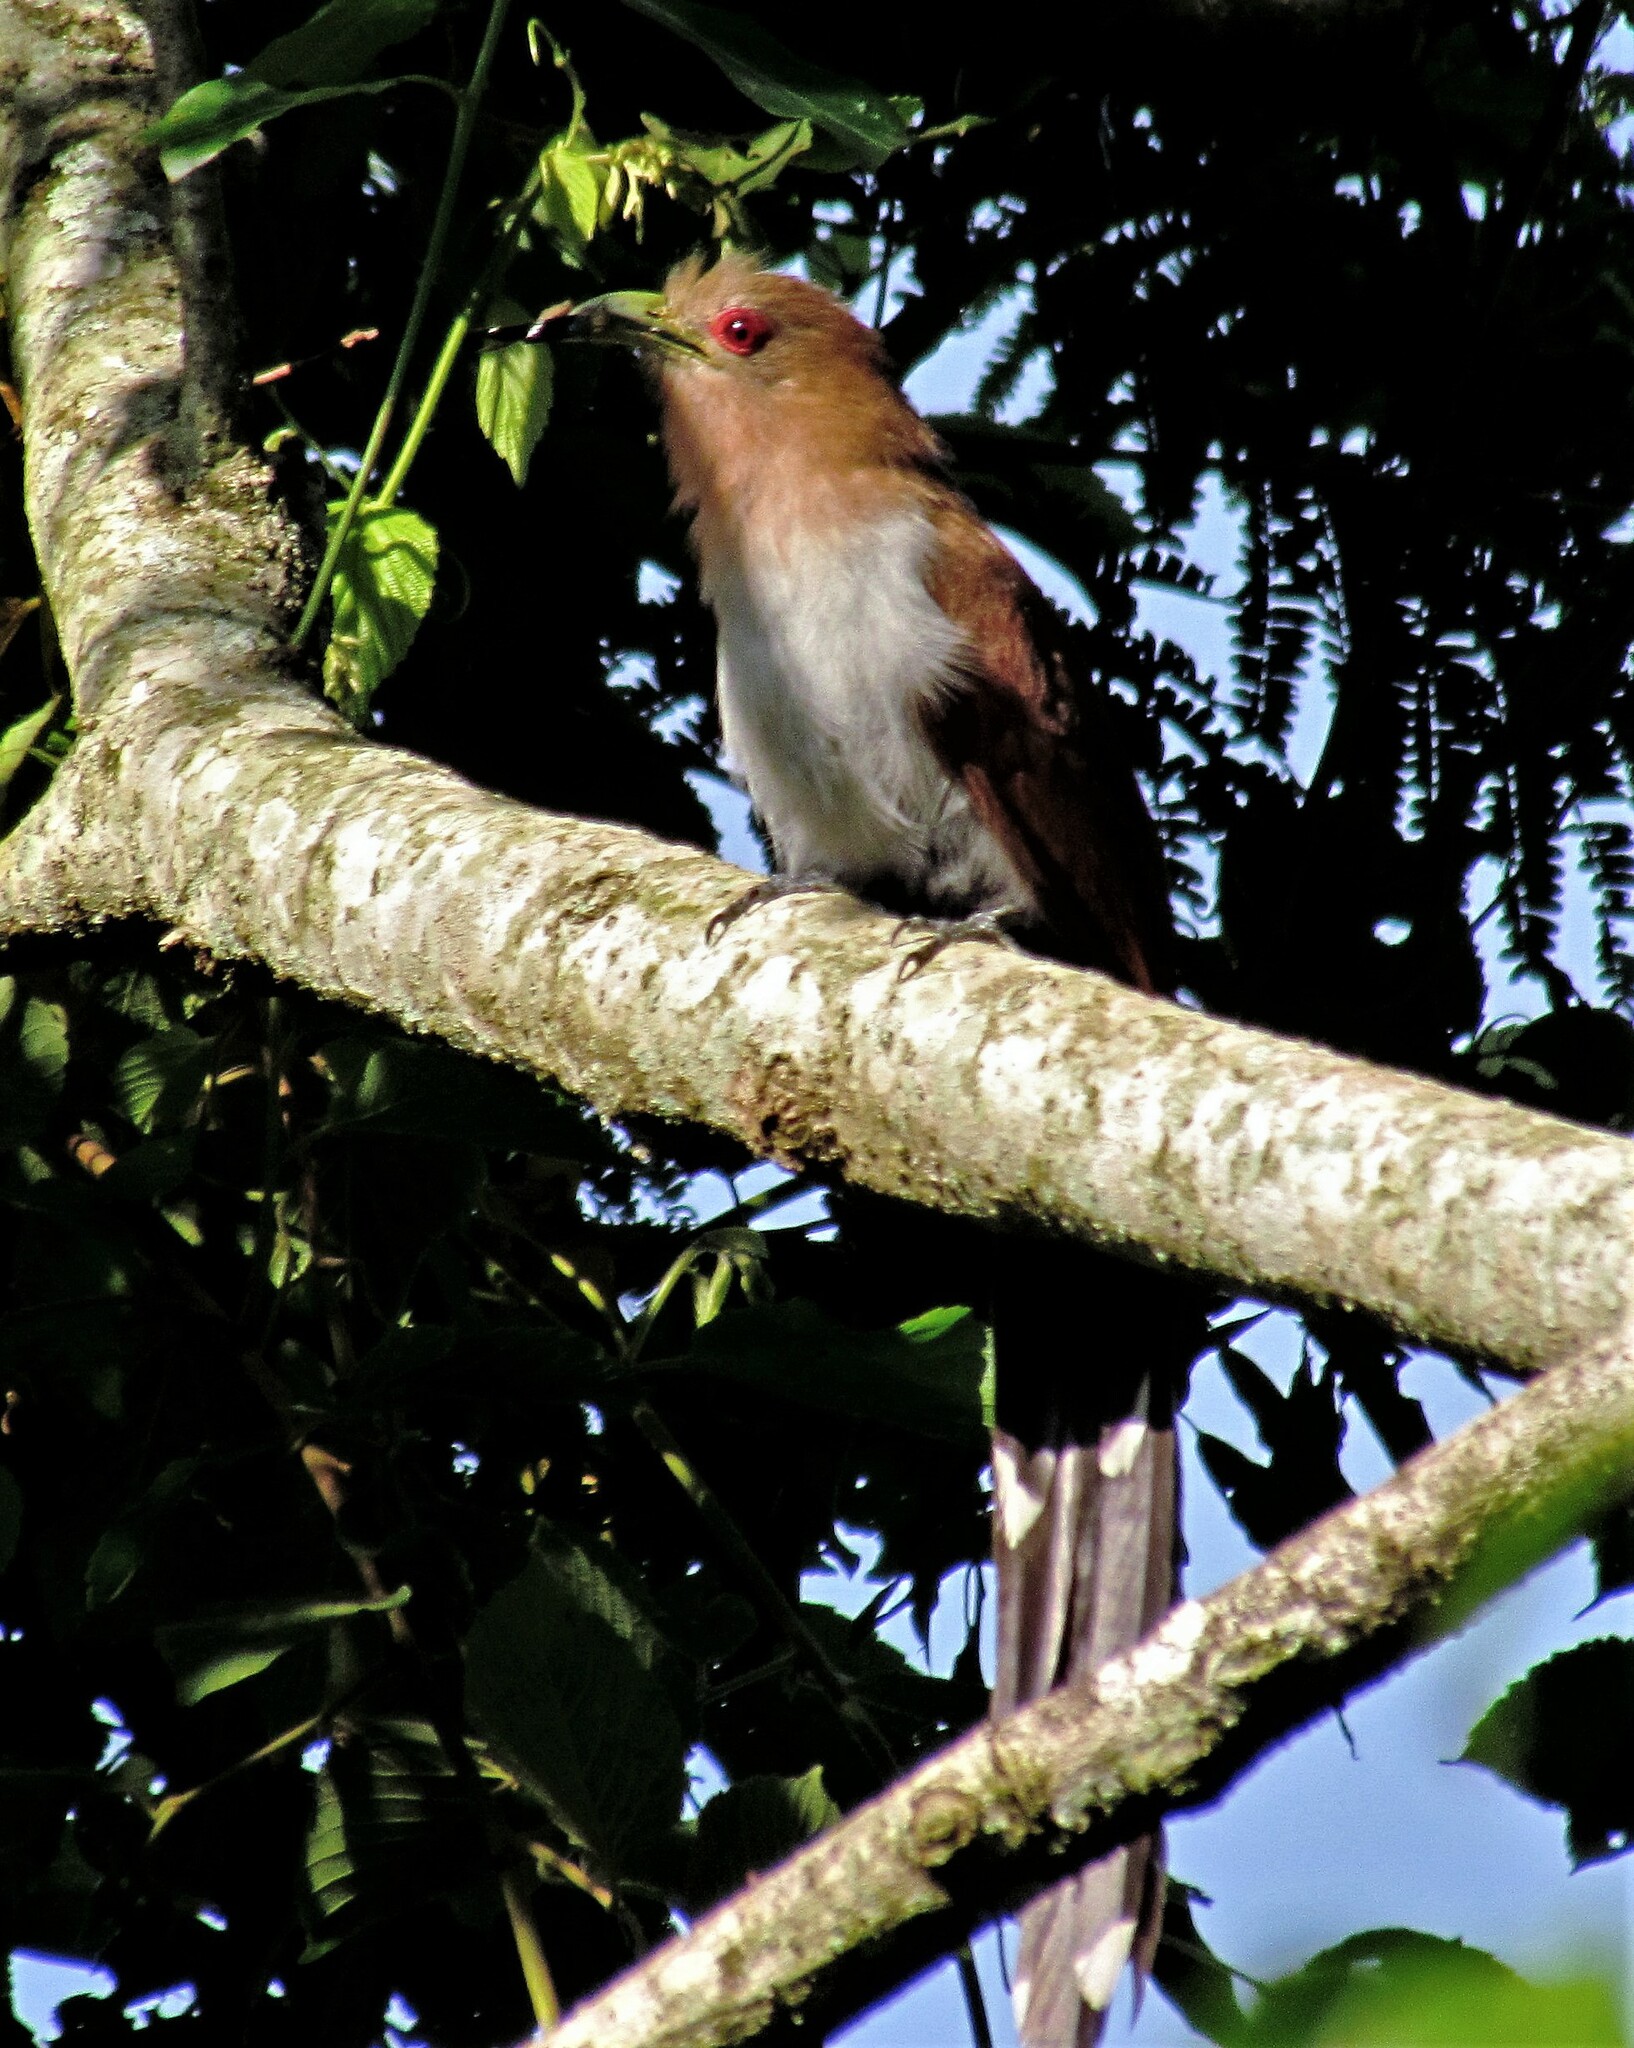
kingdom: Animalia
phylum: Chordata
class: Aves
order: Cuculiformes
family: Cuculidae
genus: Piaya
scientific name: Piaya cayana
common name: Squirrel cuckoo
